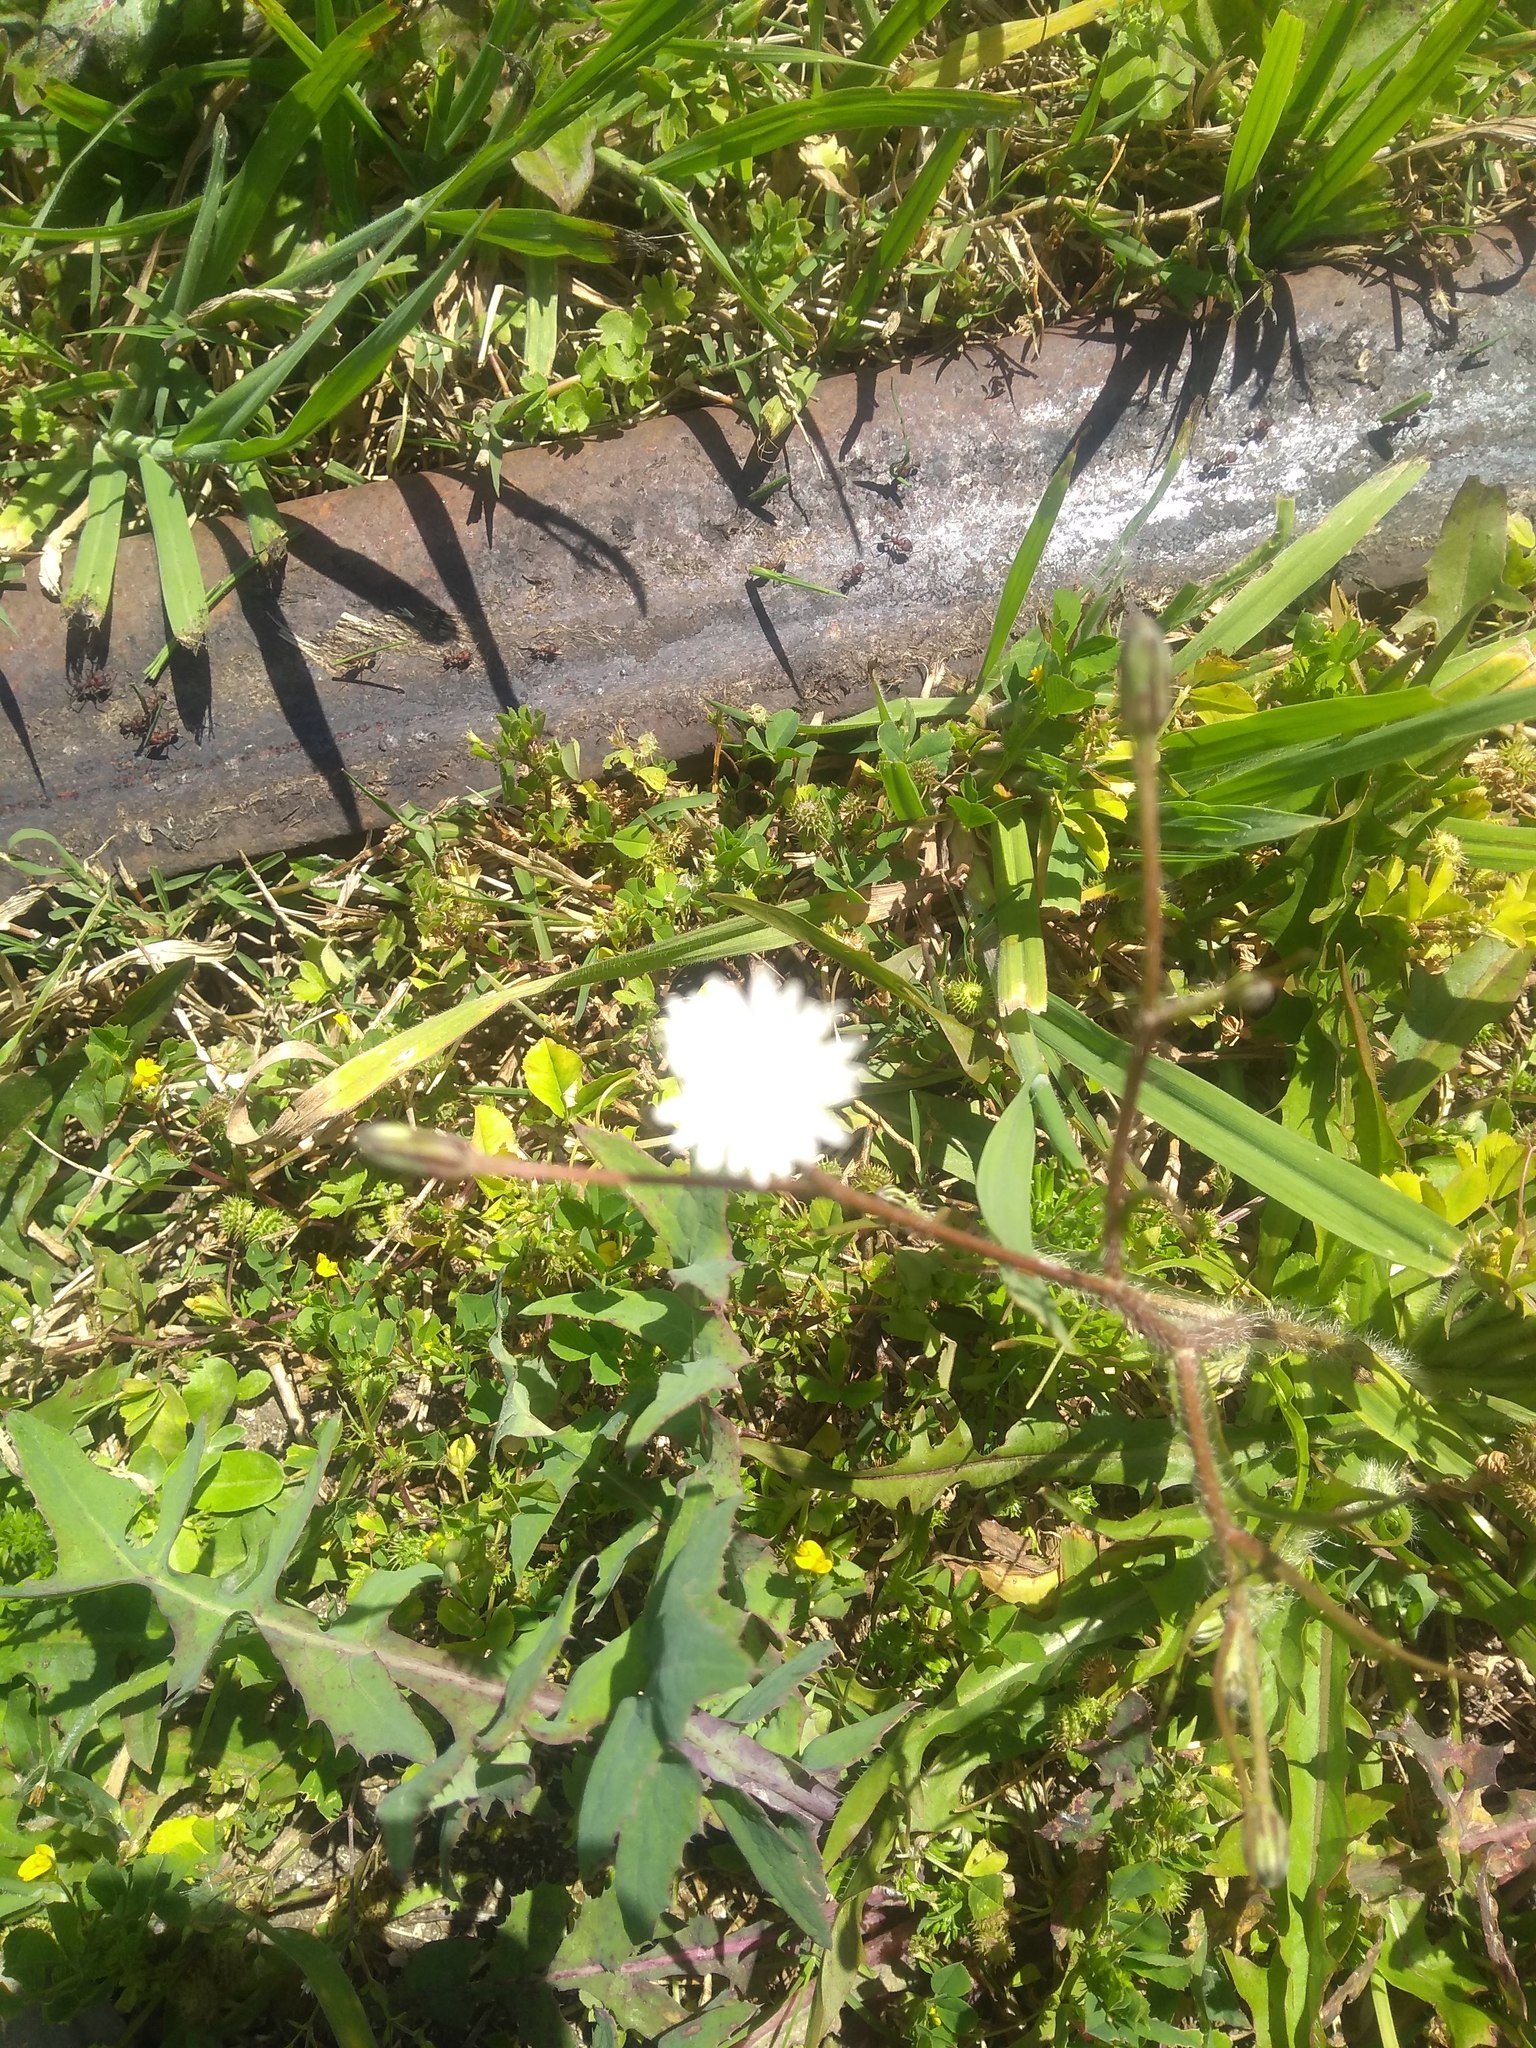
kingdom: Plantae
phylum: Tracheophyta
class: Magnoliopsida
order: Asterales
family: Asteraceae
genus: Hypochaeris
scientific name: Hypochaeris albiflora
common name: White flatweed
